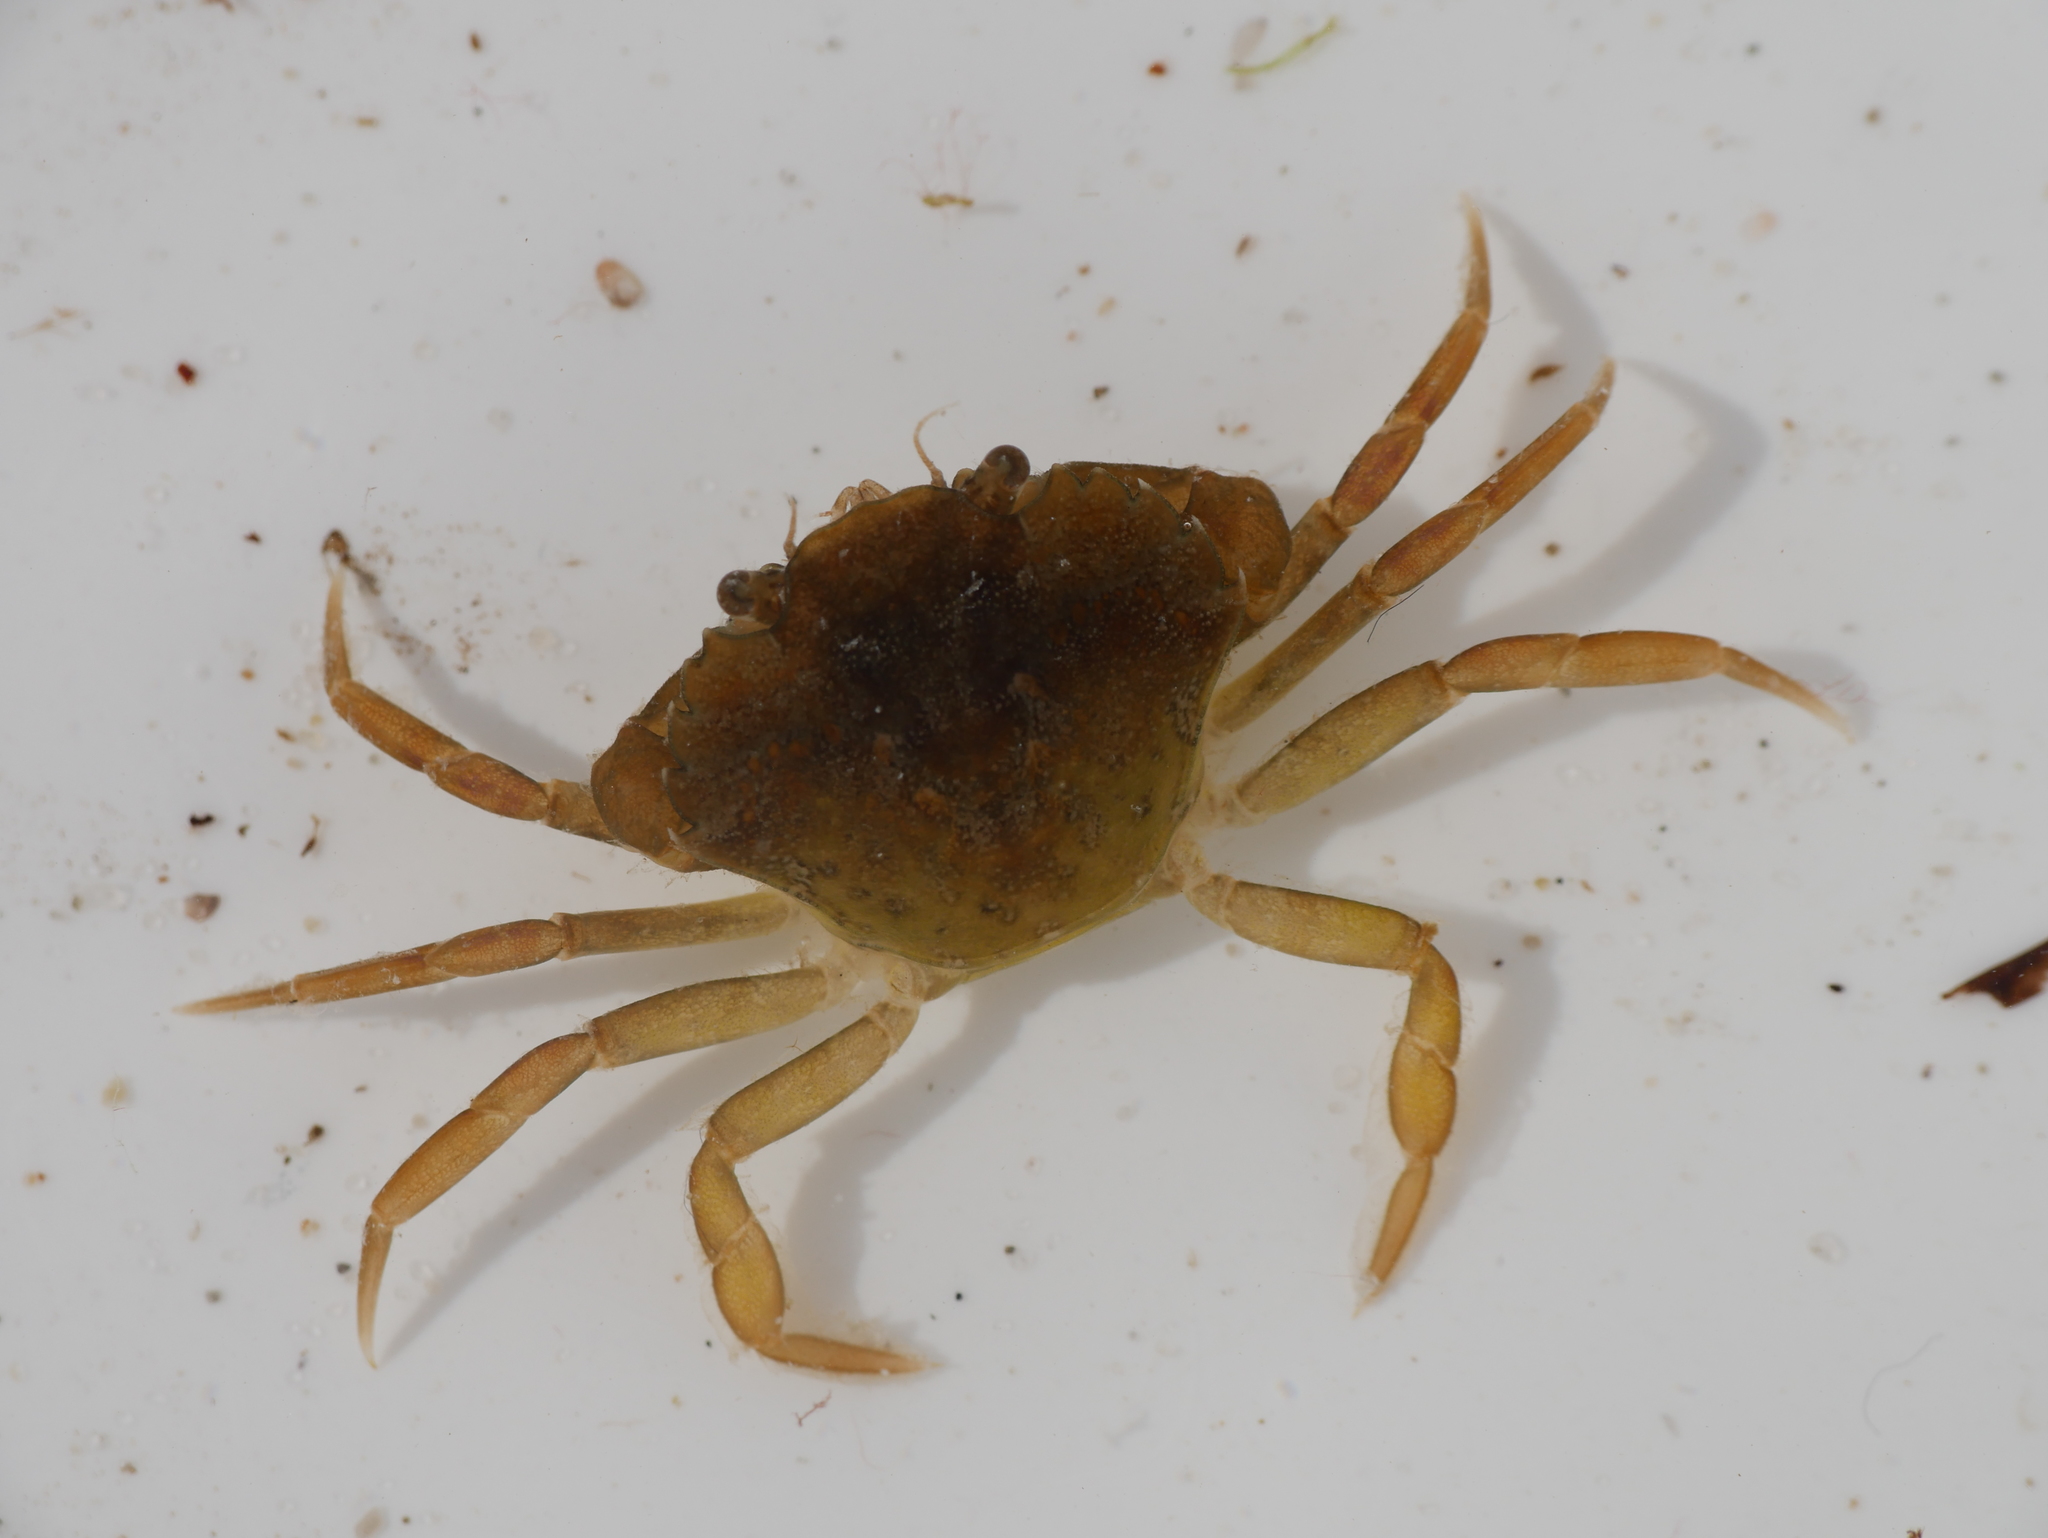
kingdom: Animalia
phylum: Arthropoda
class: Malacostraca
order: Decapoda
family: Carcinidae
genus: Carcinus
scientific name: Carcinus maenas
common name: European green crab
